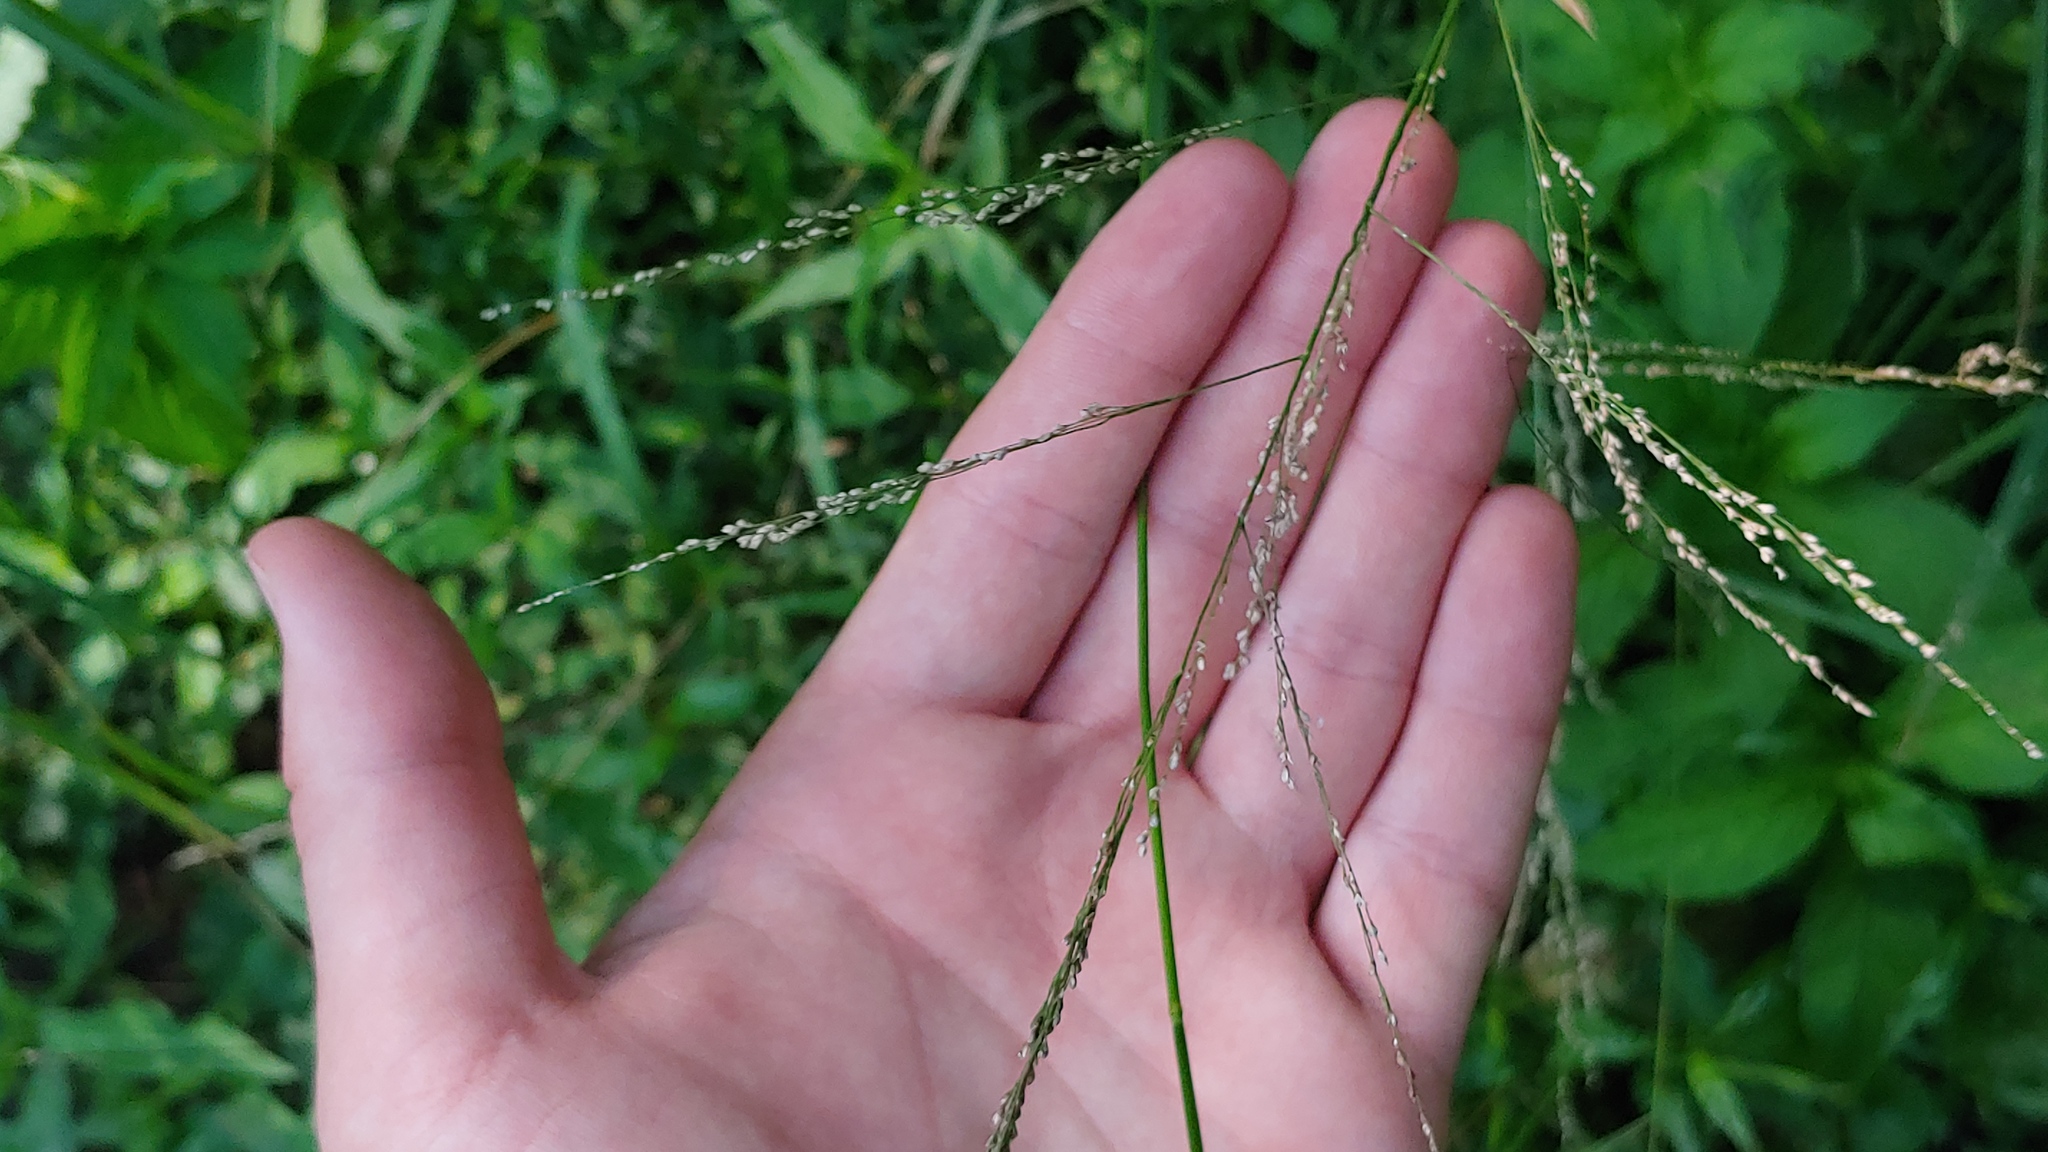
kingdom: Plantae
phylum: Tracheophyta
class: Liliopsida
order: Poales
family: Poaceae
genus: Glyceria
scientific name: Glyceria striata
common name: Fowl manna grass
